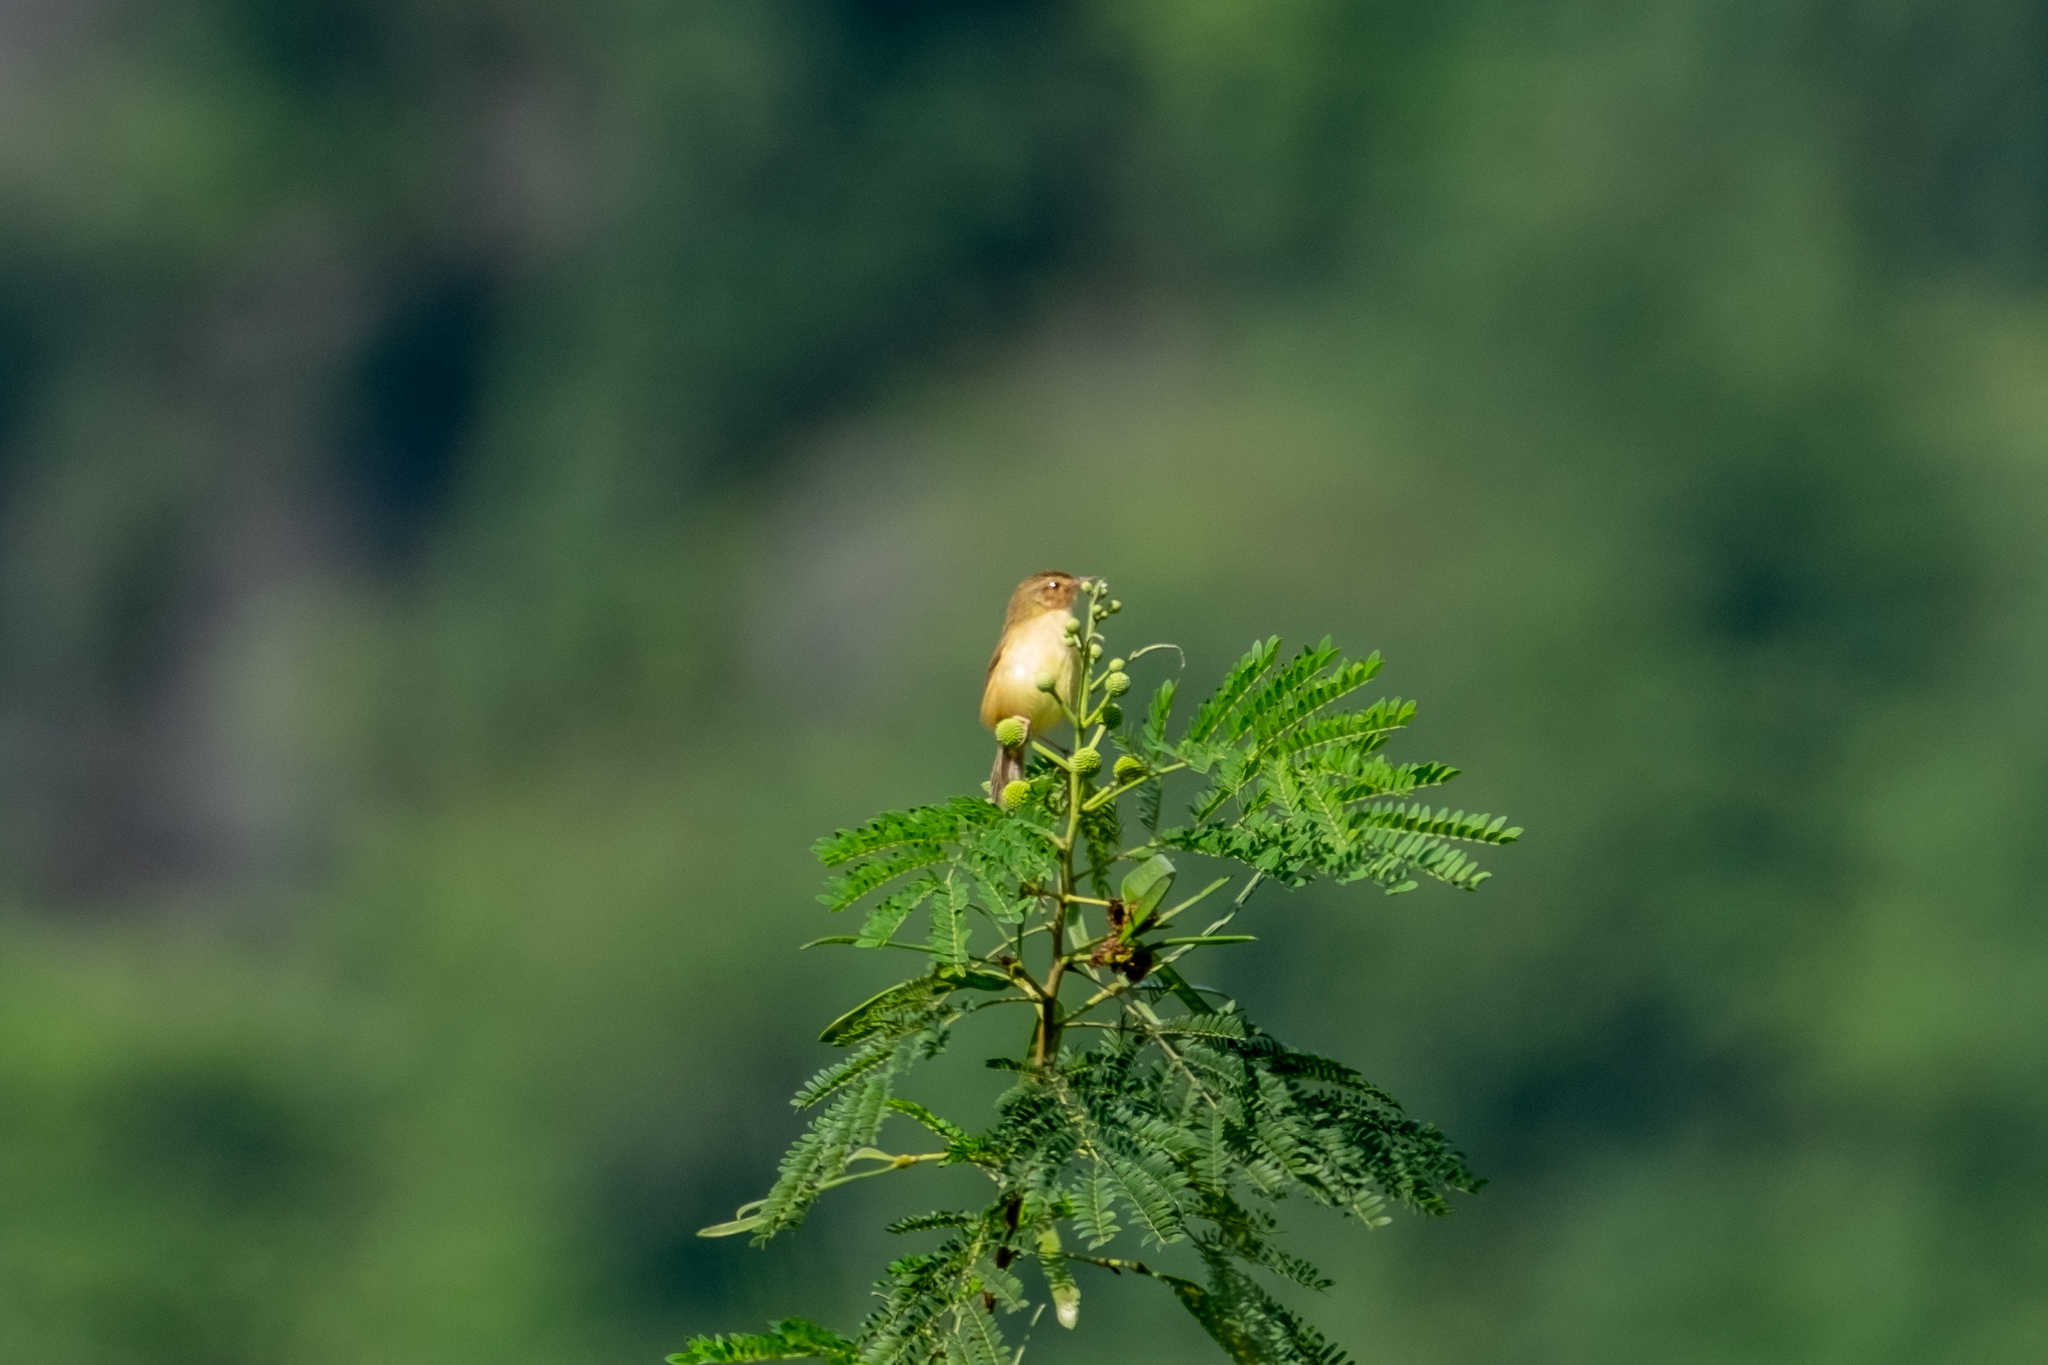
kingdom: Animalia
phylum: Chordata
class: Aves
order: Passeriformes
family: Cisticolidae
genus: Prinia
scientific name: Prinia inornata
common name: Plain prinia
